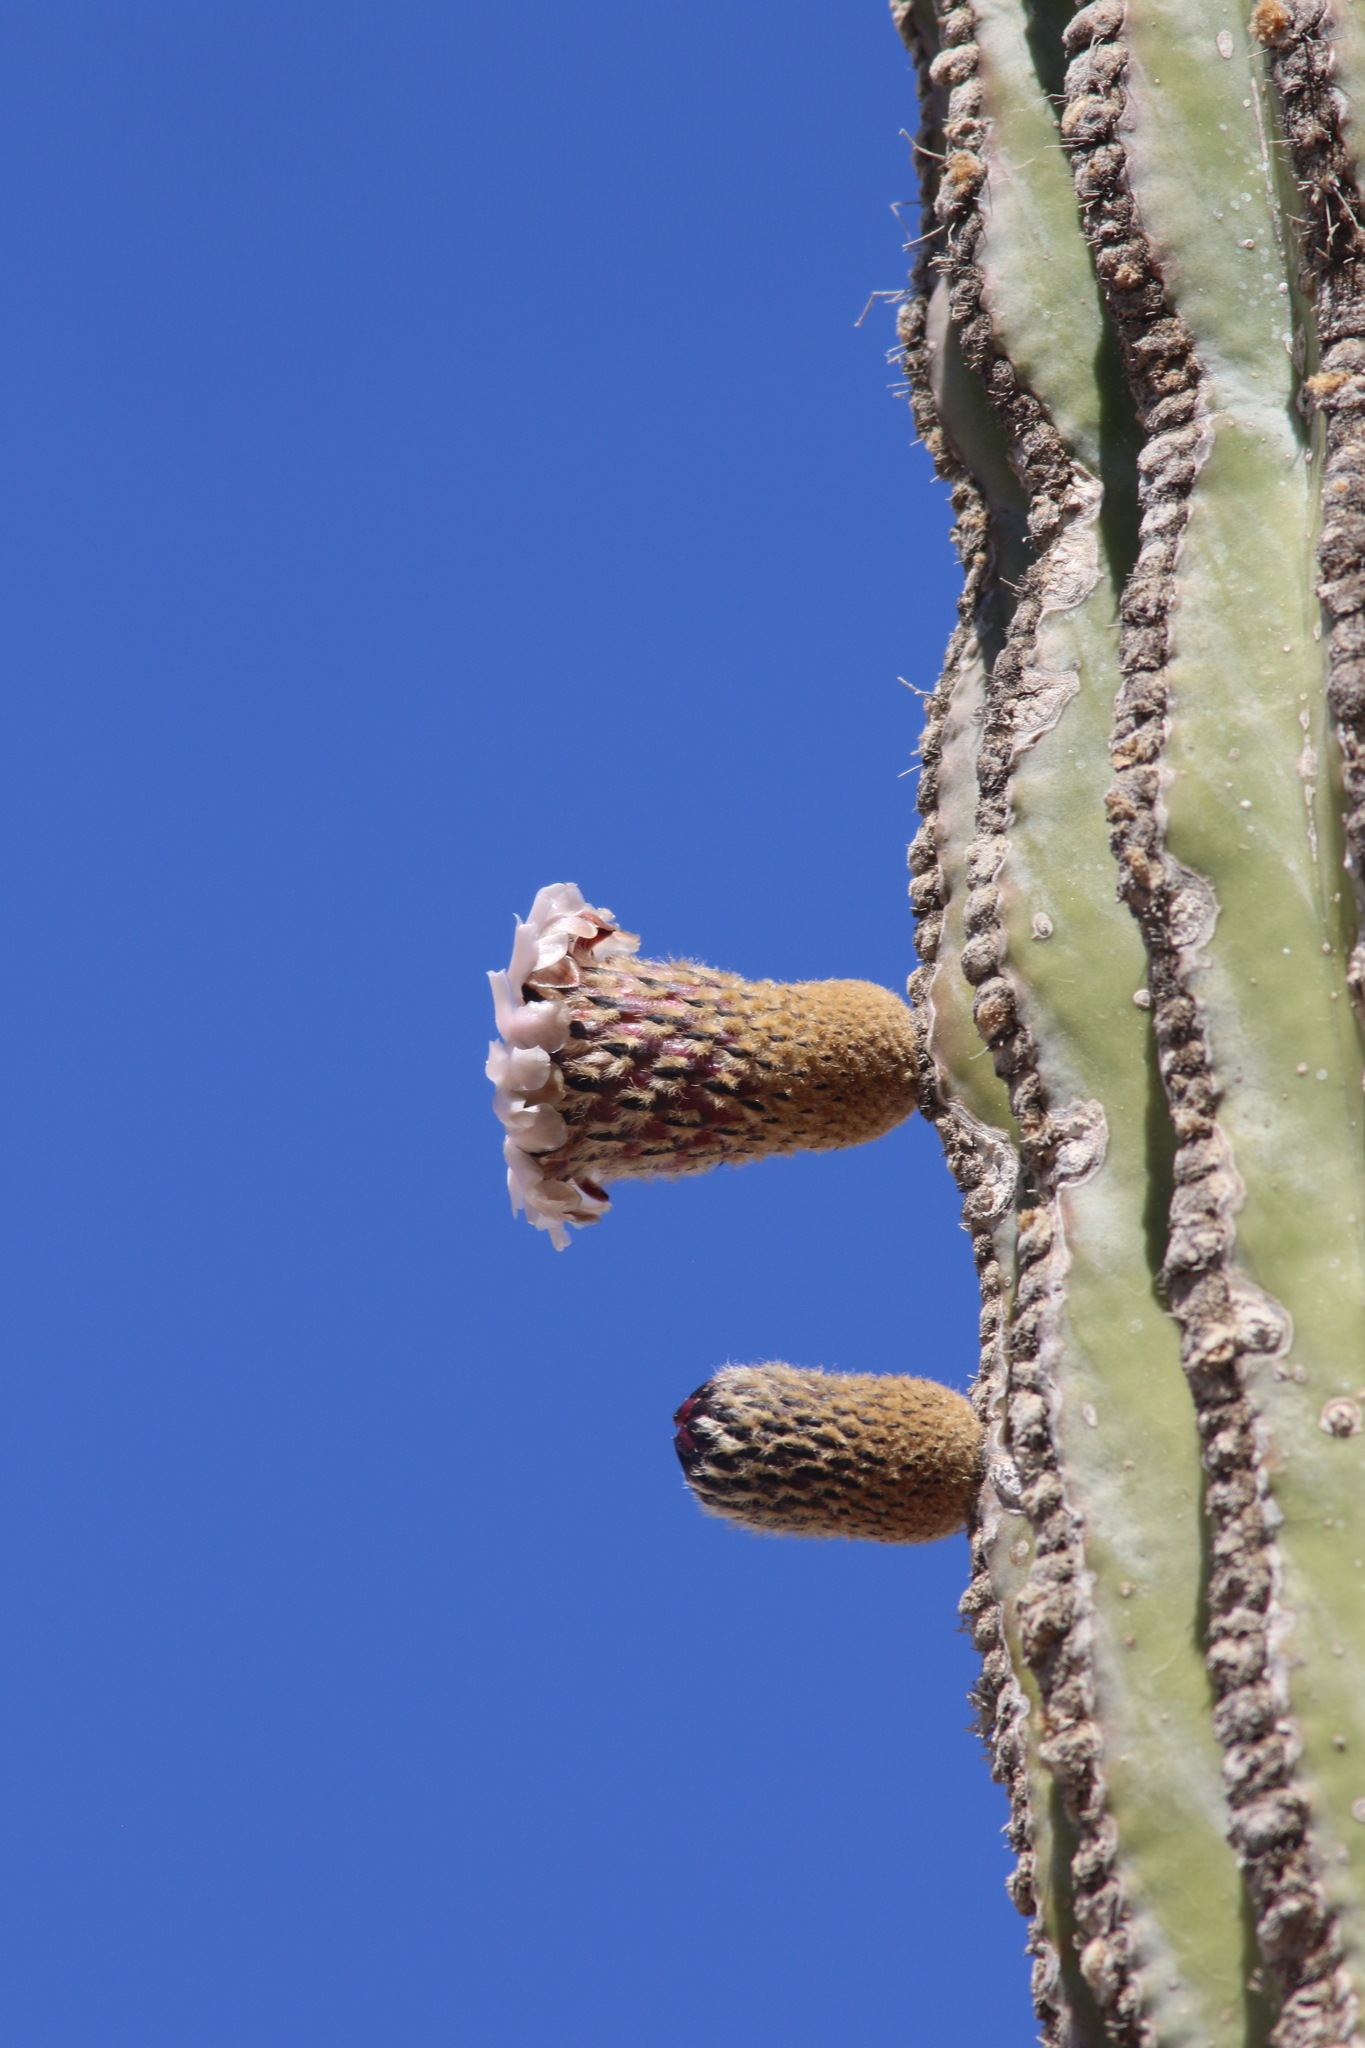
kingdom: Plantae
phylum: Tracheophyta
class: Magnoliopsida
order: Caryophyllales
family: Cactaceae
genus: Pachycereus
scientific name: Pachycereus pringlei
